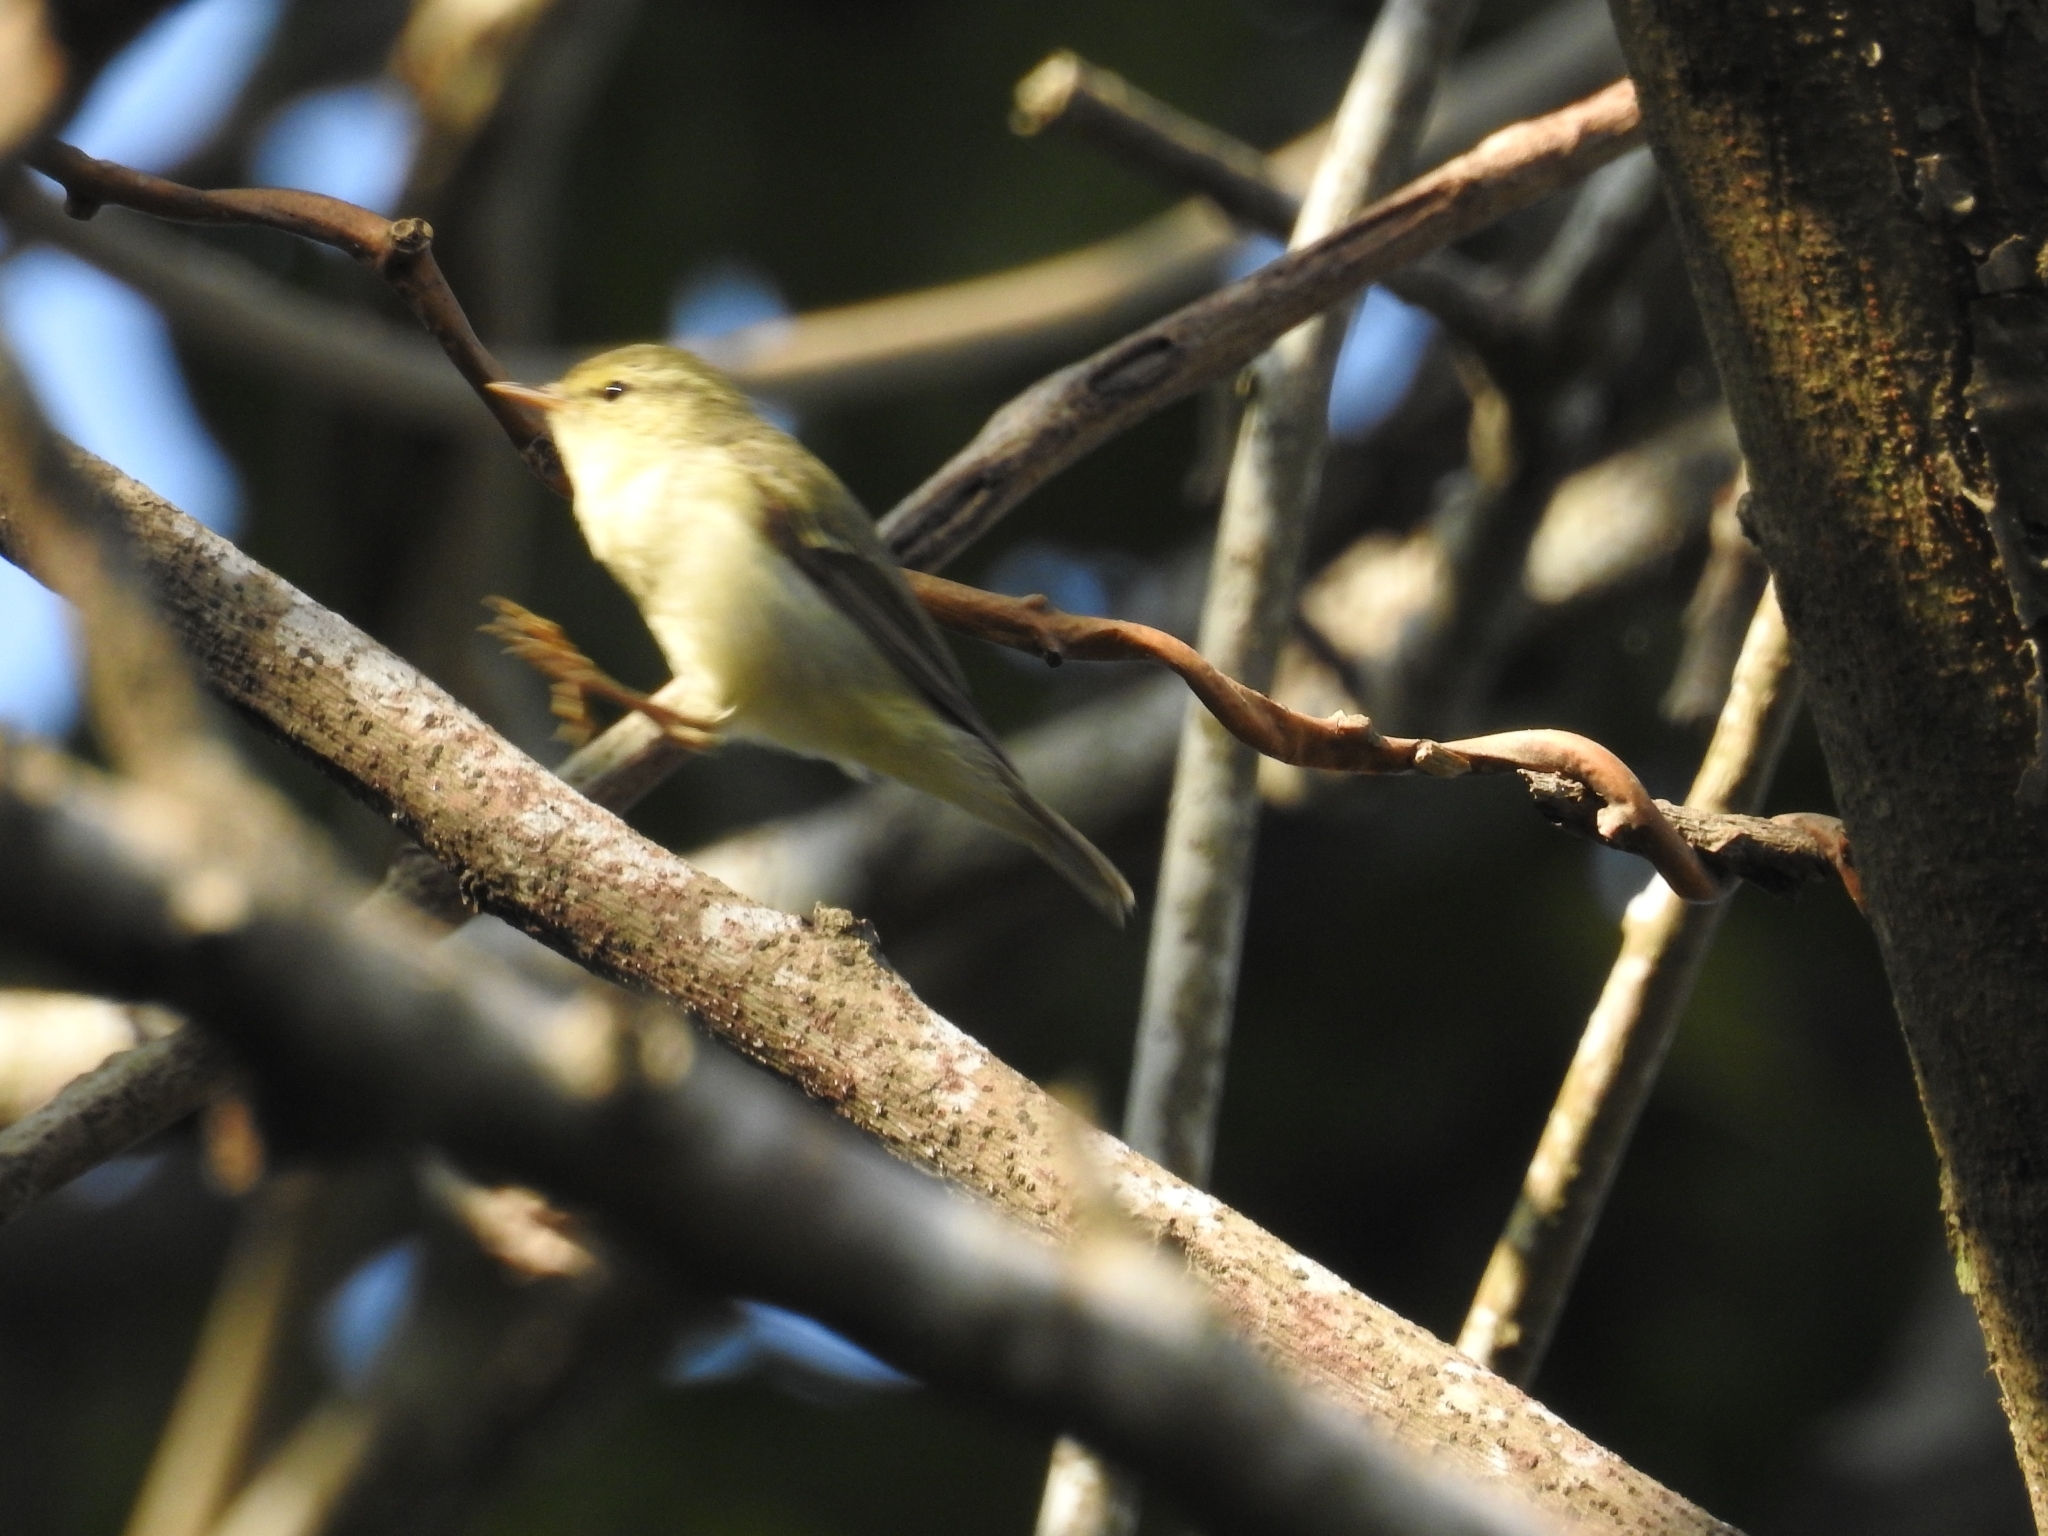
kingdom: Animalia
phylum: Chordata
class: Aves
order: Passeriformes
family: Phylloscopidae
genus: Phylloscopus
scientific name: Phylloscopus nitidus
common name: Green warbler
